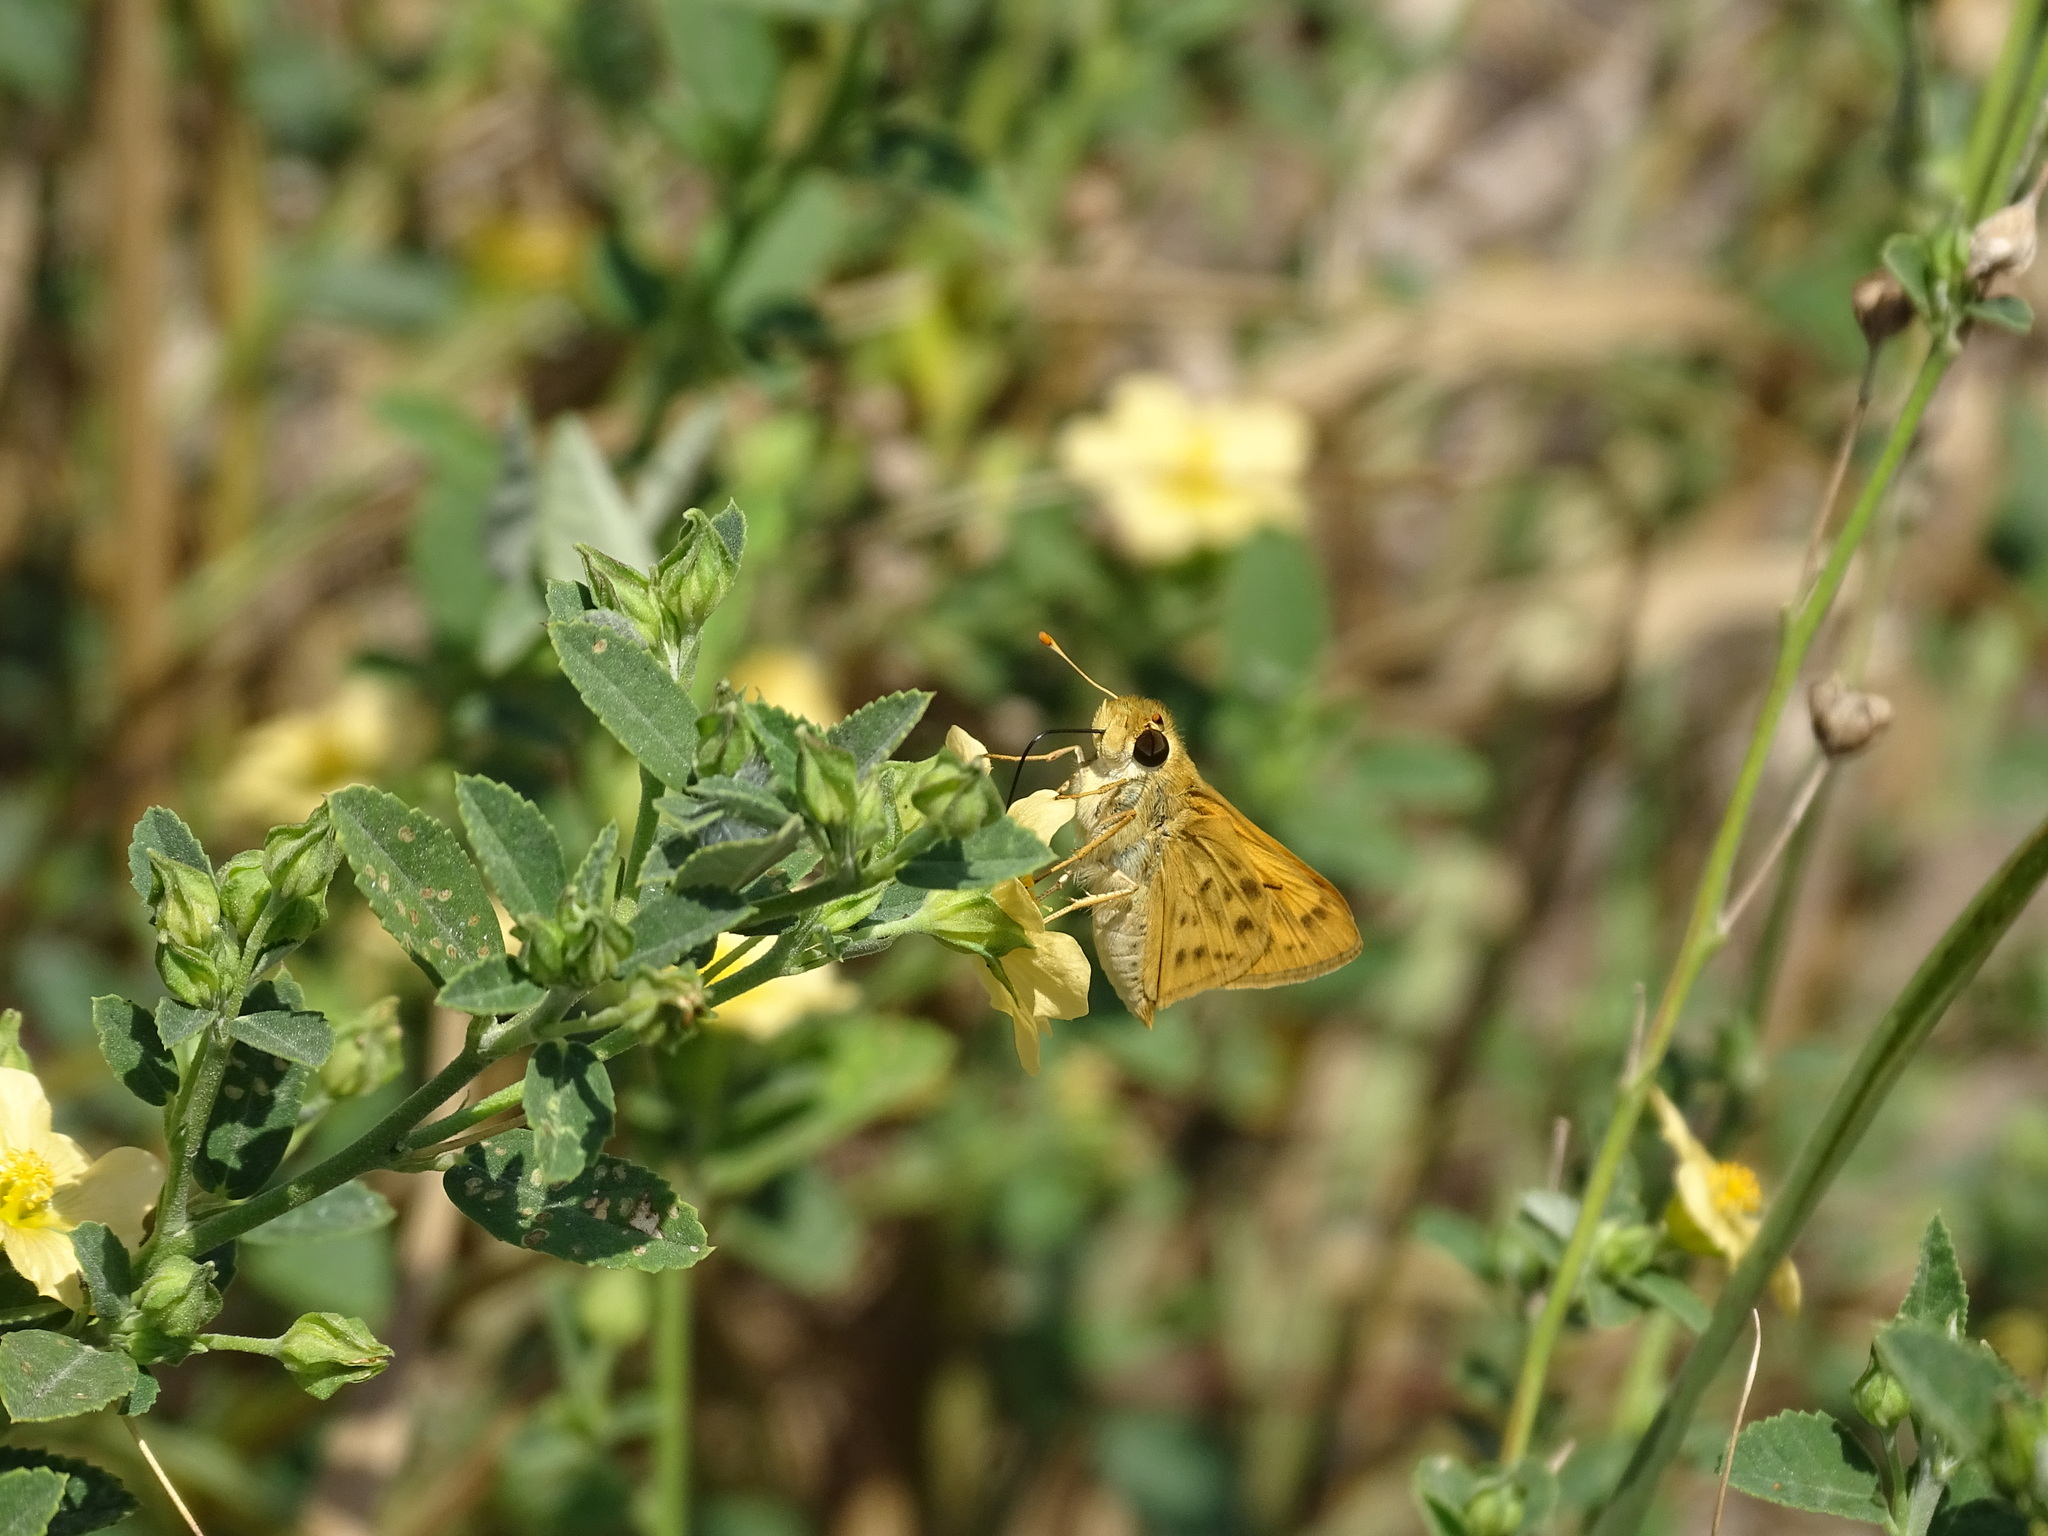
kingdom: Animalia
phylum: Arthropoda
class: Insecta
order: Lepidoptera
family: Hesperiidae
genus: Hylephila
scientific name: Hylephila phyleus
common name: Fiery skipper
